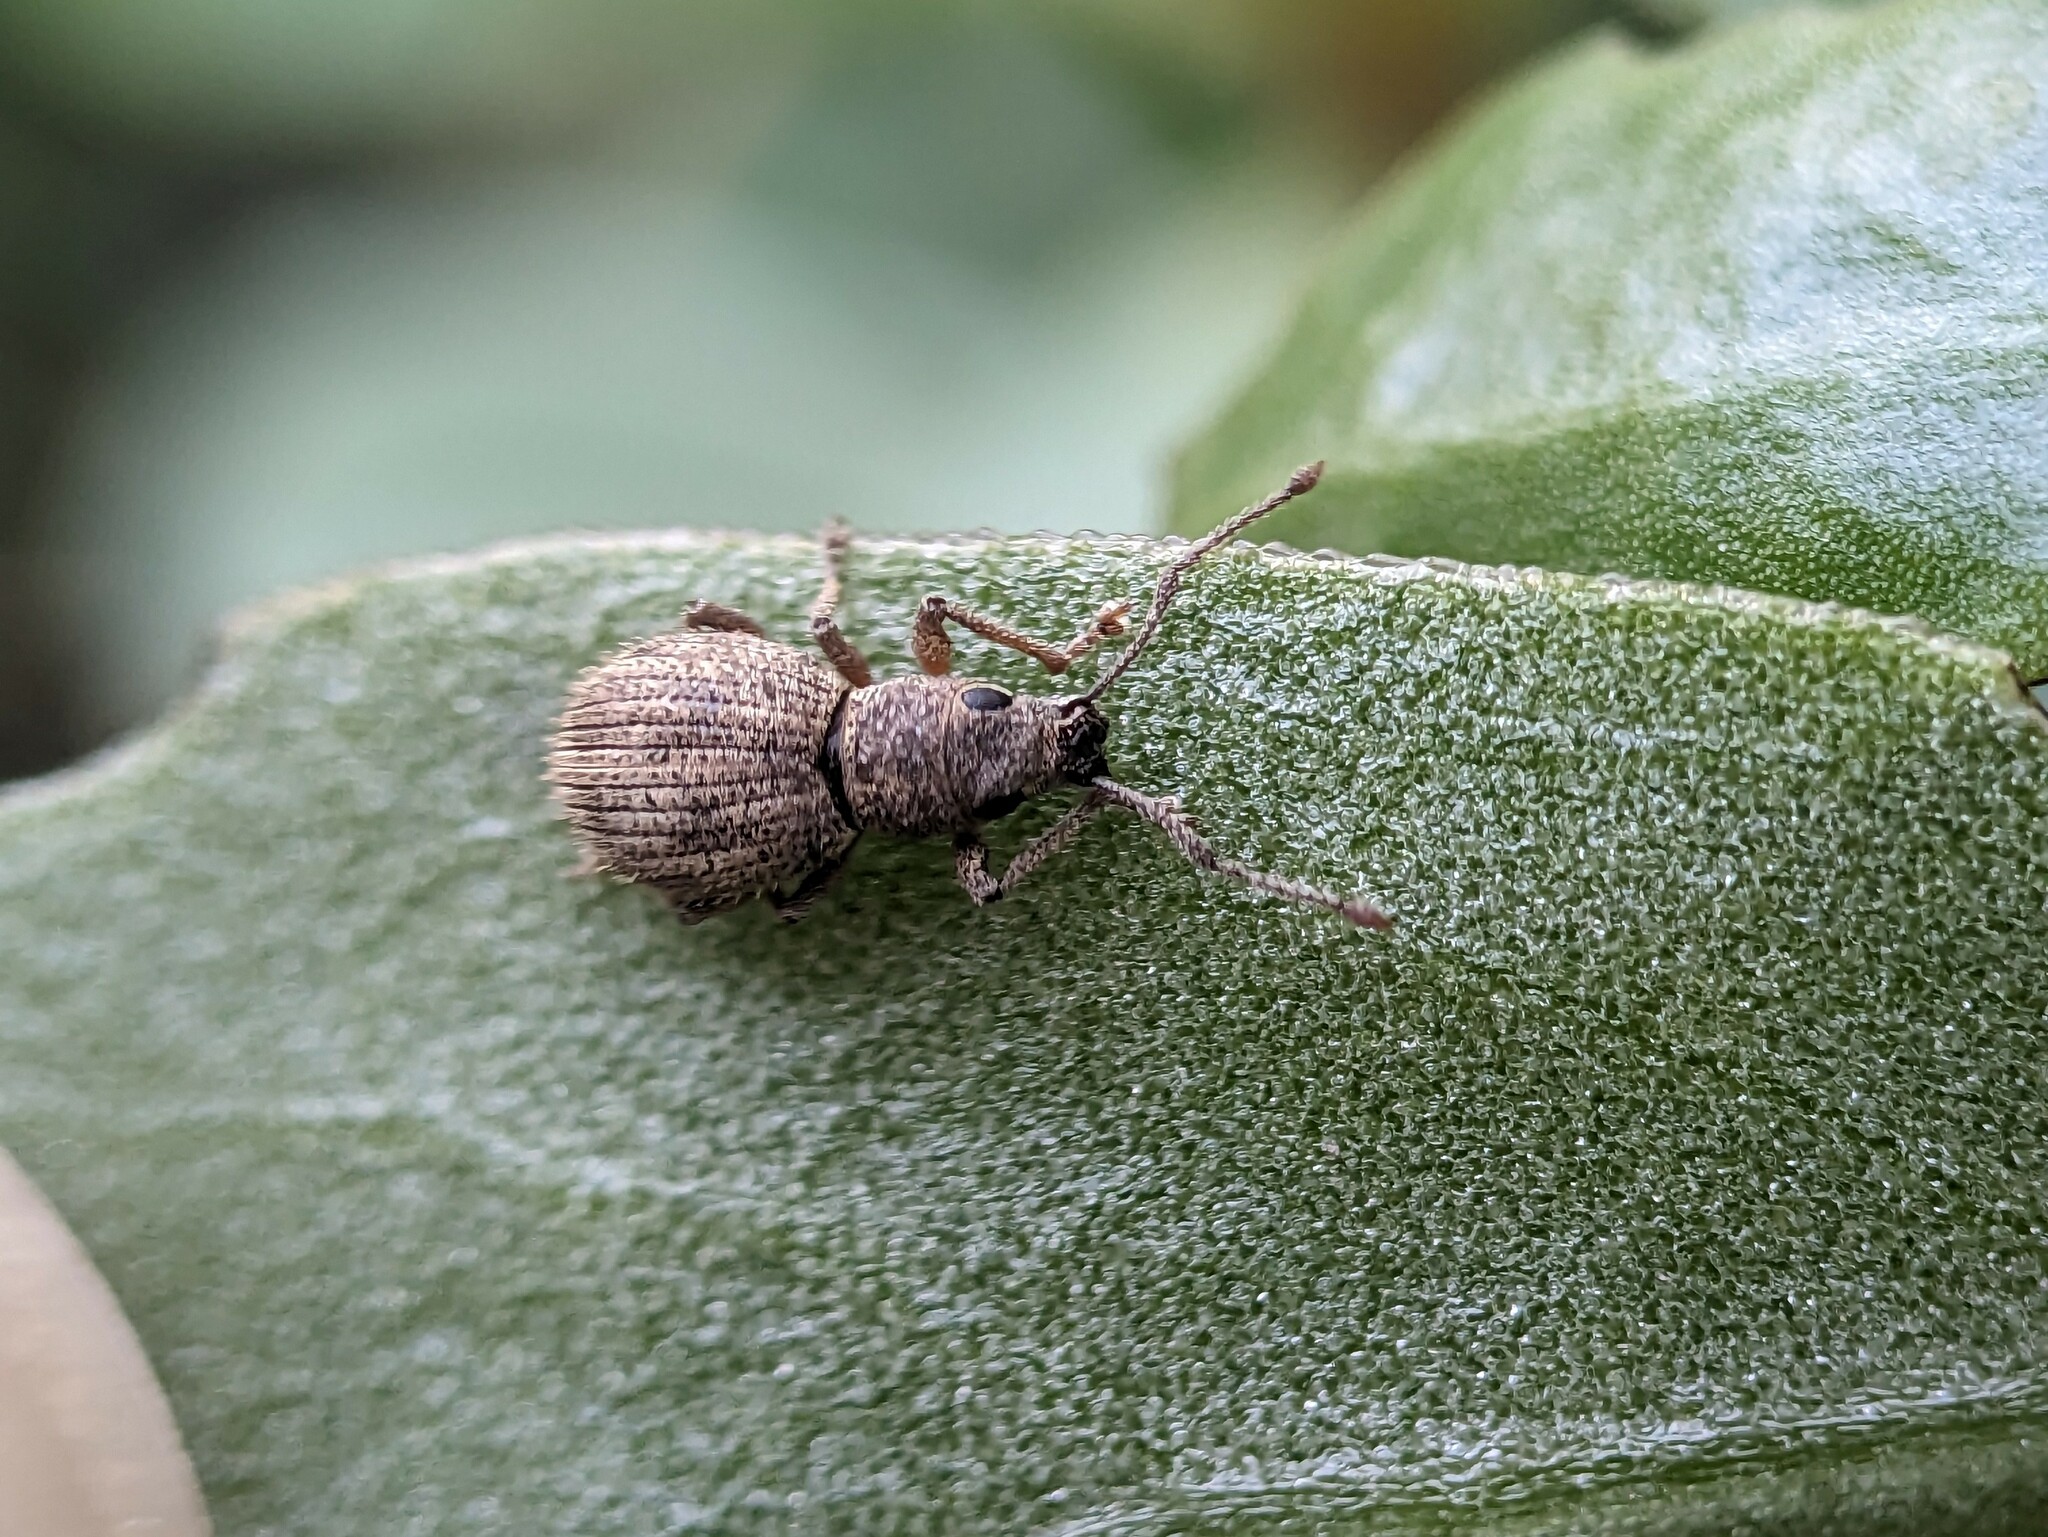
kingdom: Animalia
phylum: Arthropoda
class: Insecta
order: Coleoptera
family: Curculionidae
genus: Calomycterus
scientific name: Calomycterus setarius
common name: Weevil
